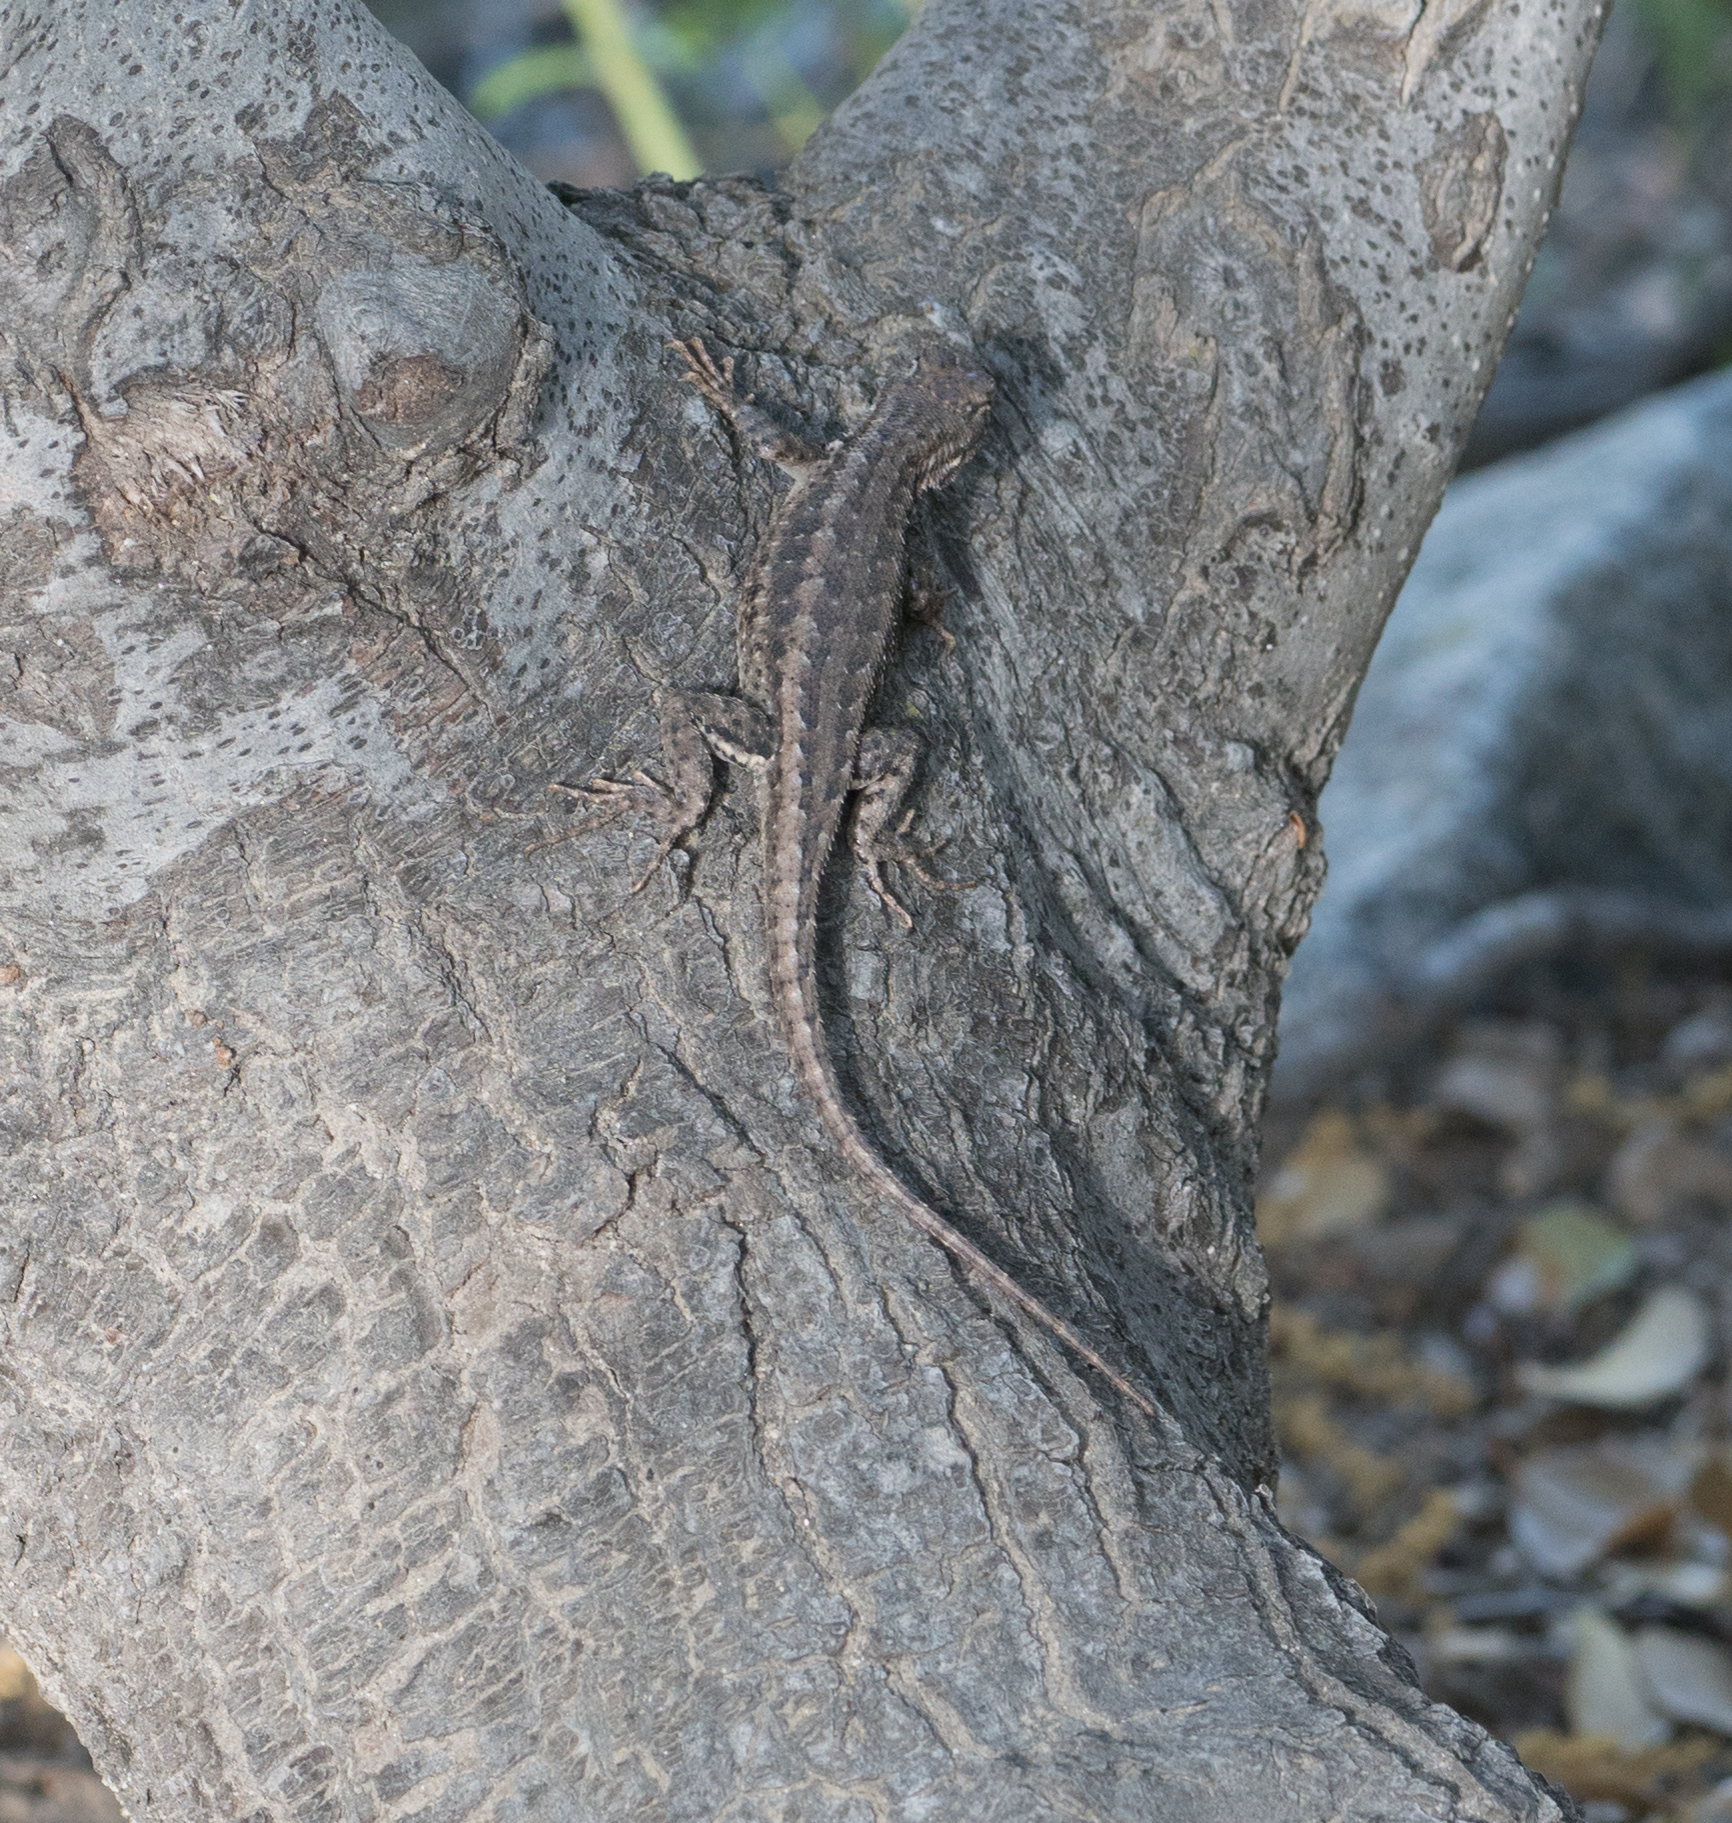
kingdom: Animalia
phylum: Chordata
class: Squamata
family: Phrynosomatidae
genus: Sceloporus
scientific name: Sceloporus occidentalis
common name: Western fence lizard
